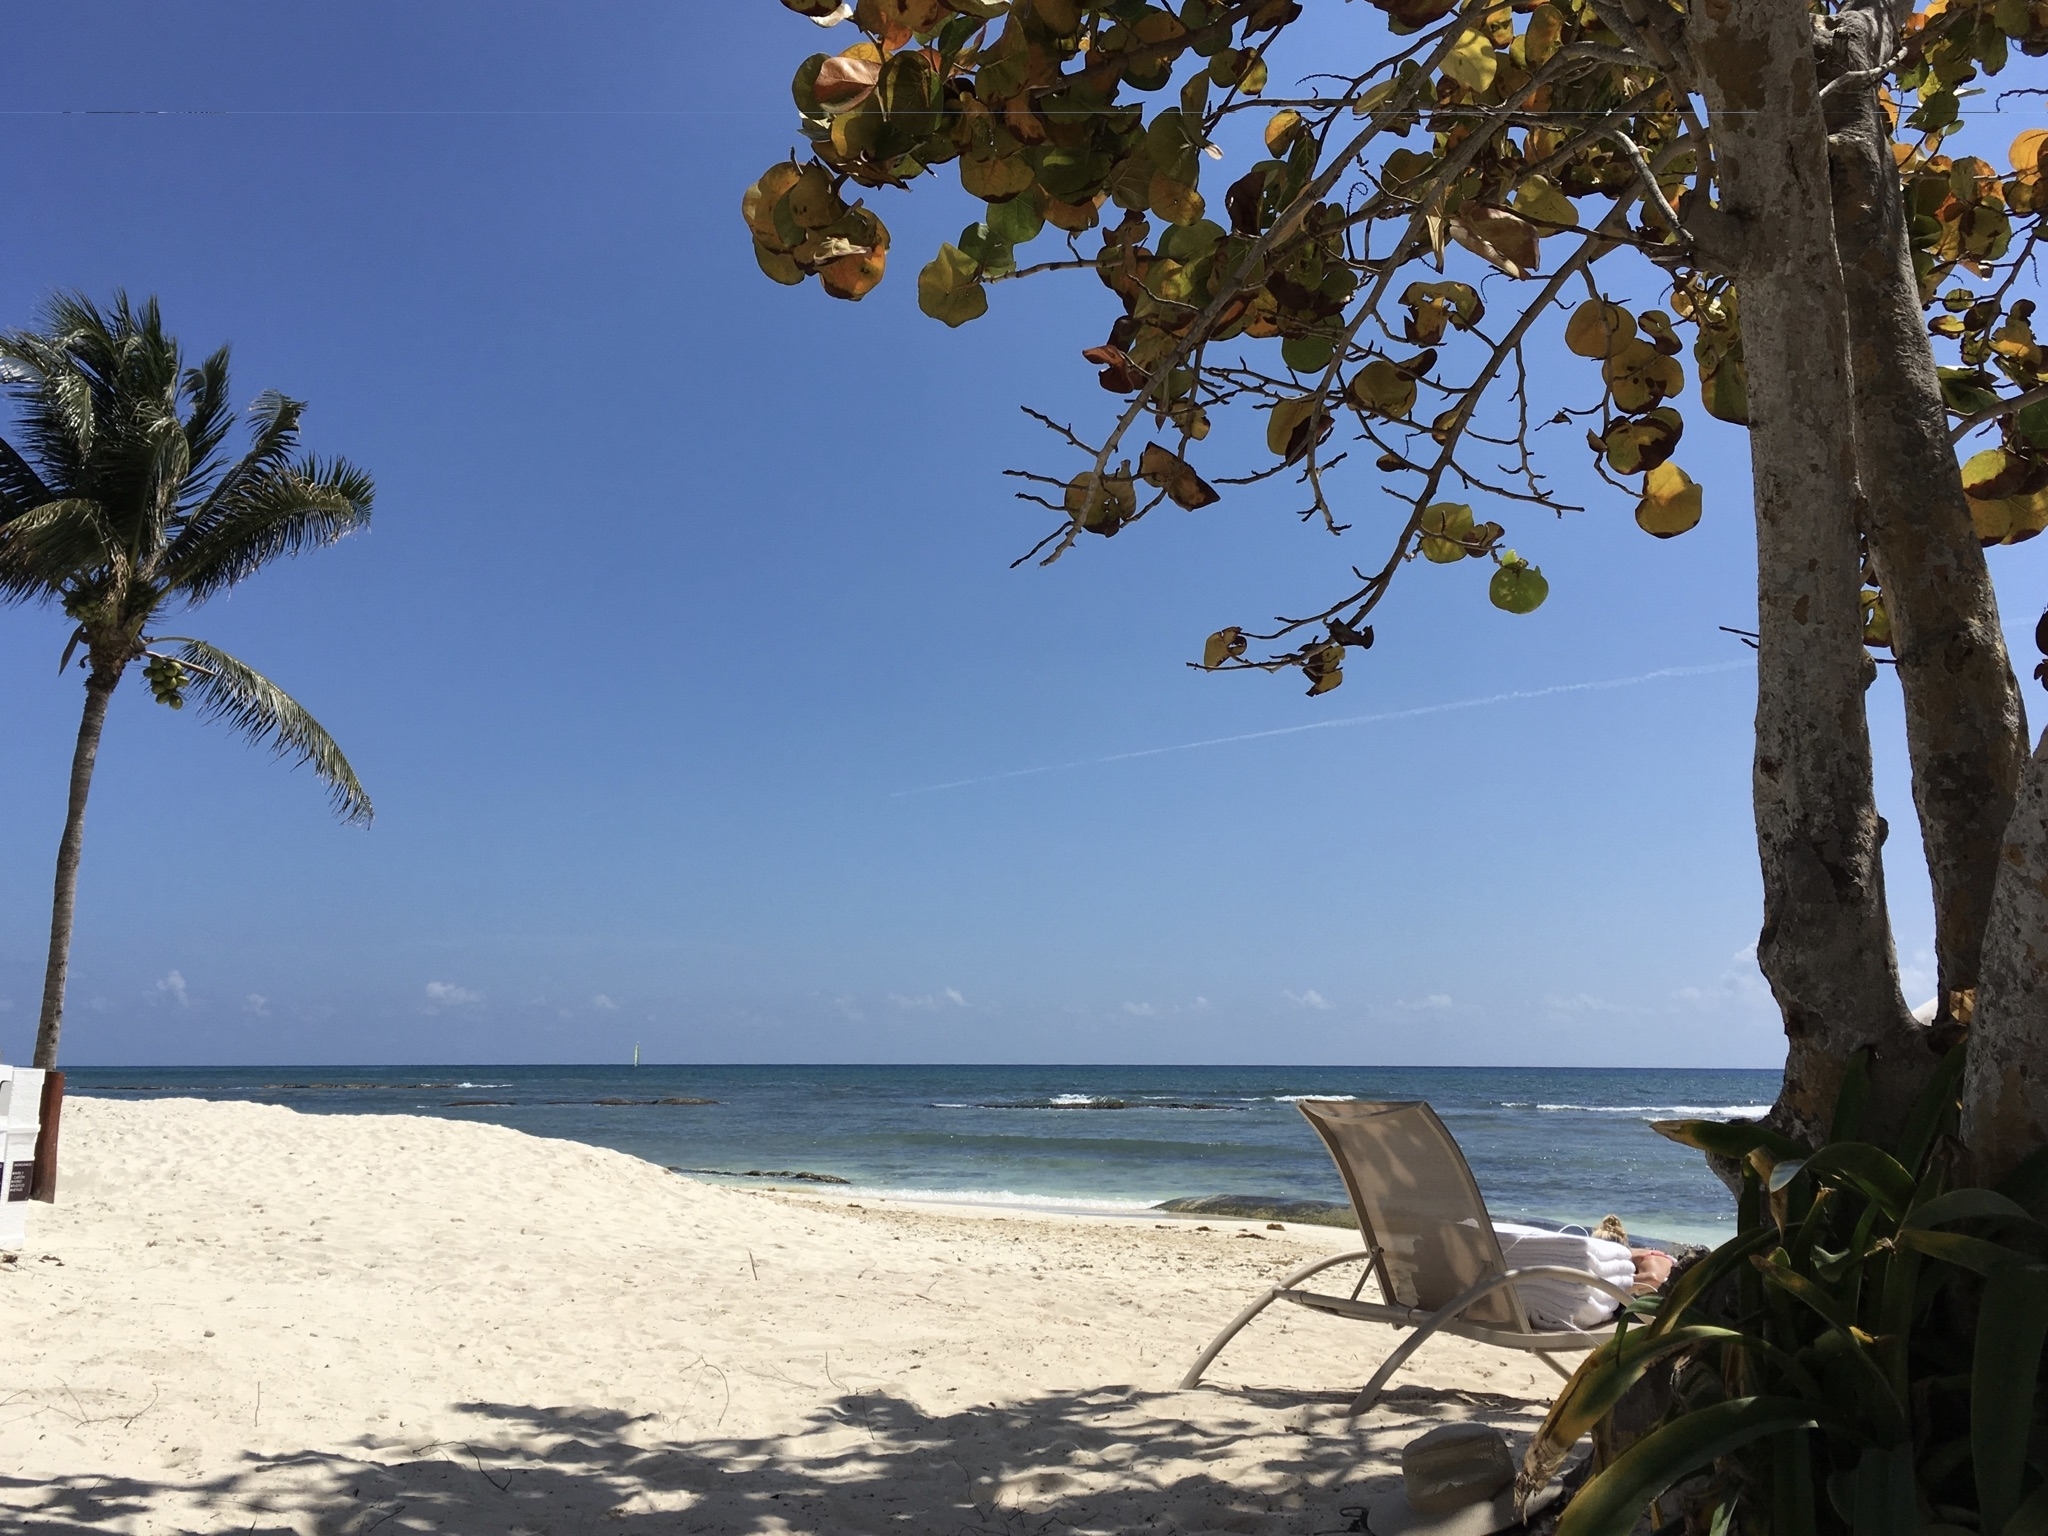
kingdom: Plantae
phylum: Tracheophyta
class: Magnoliopsida
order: Caryophyllales
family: Polygonaceae
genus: Coccoloba
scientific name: Coccoloba uvifera
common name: Seagrape
